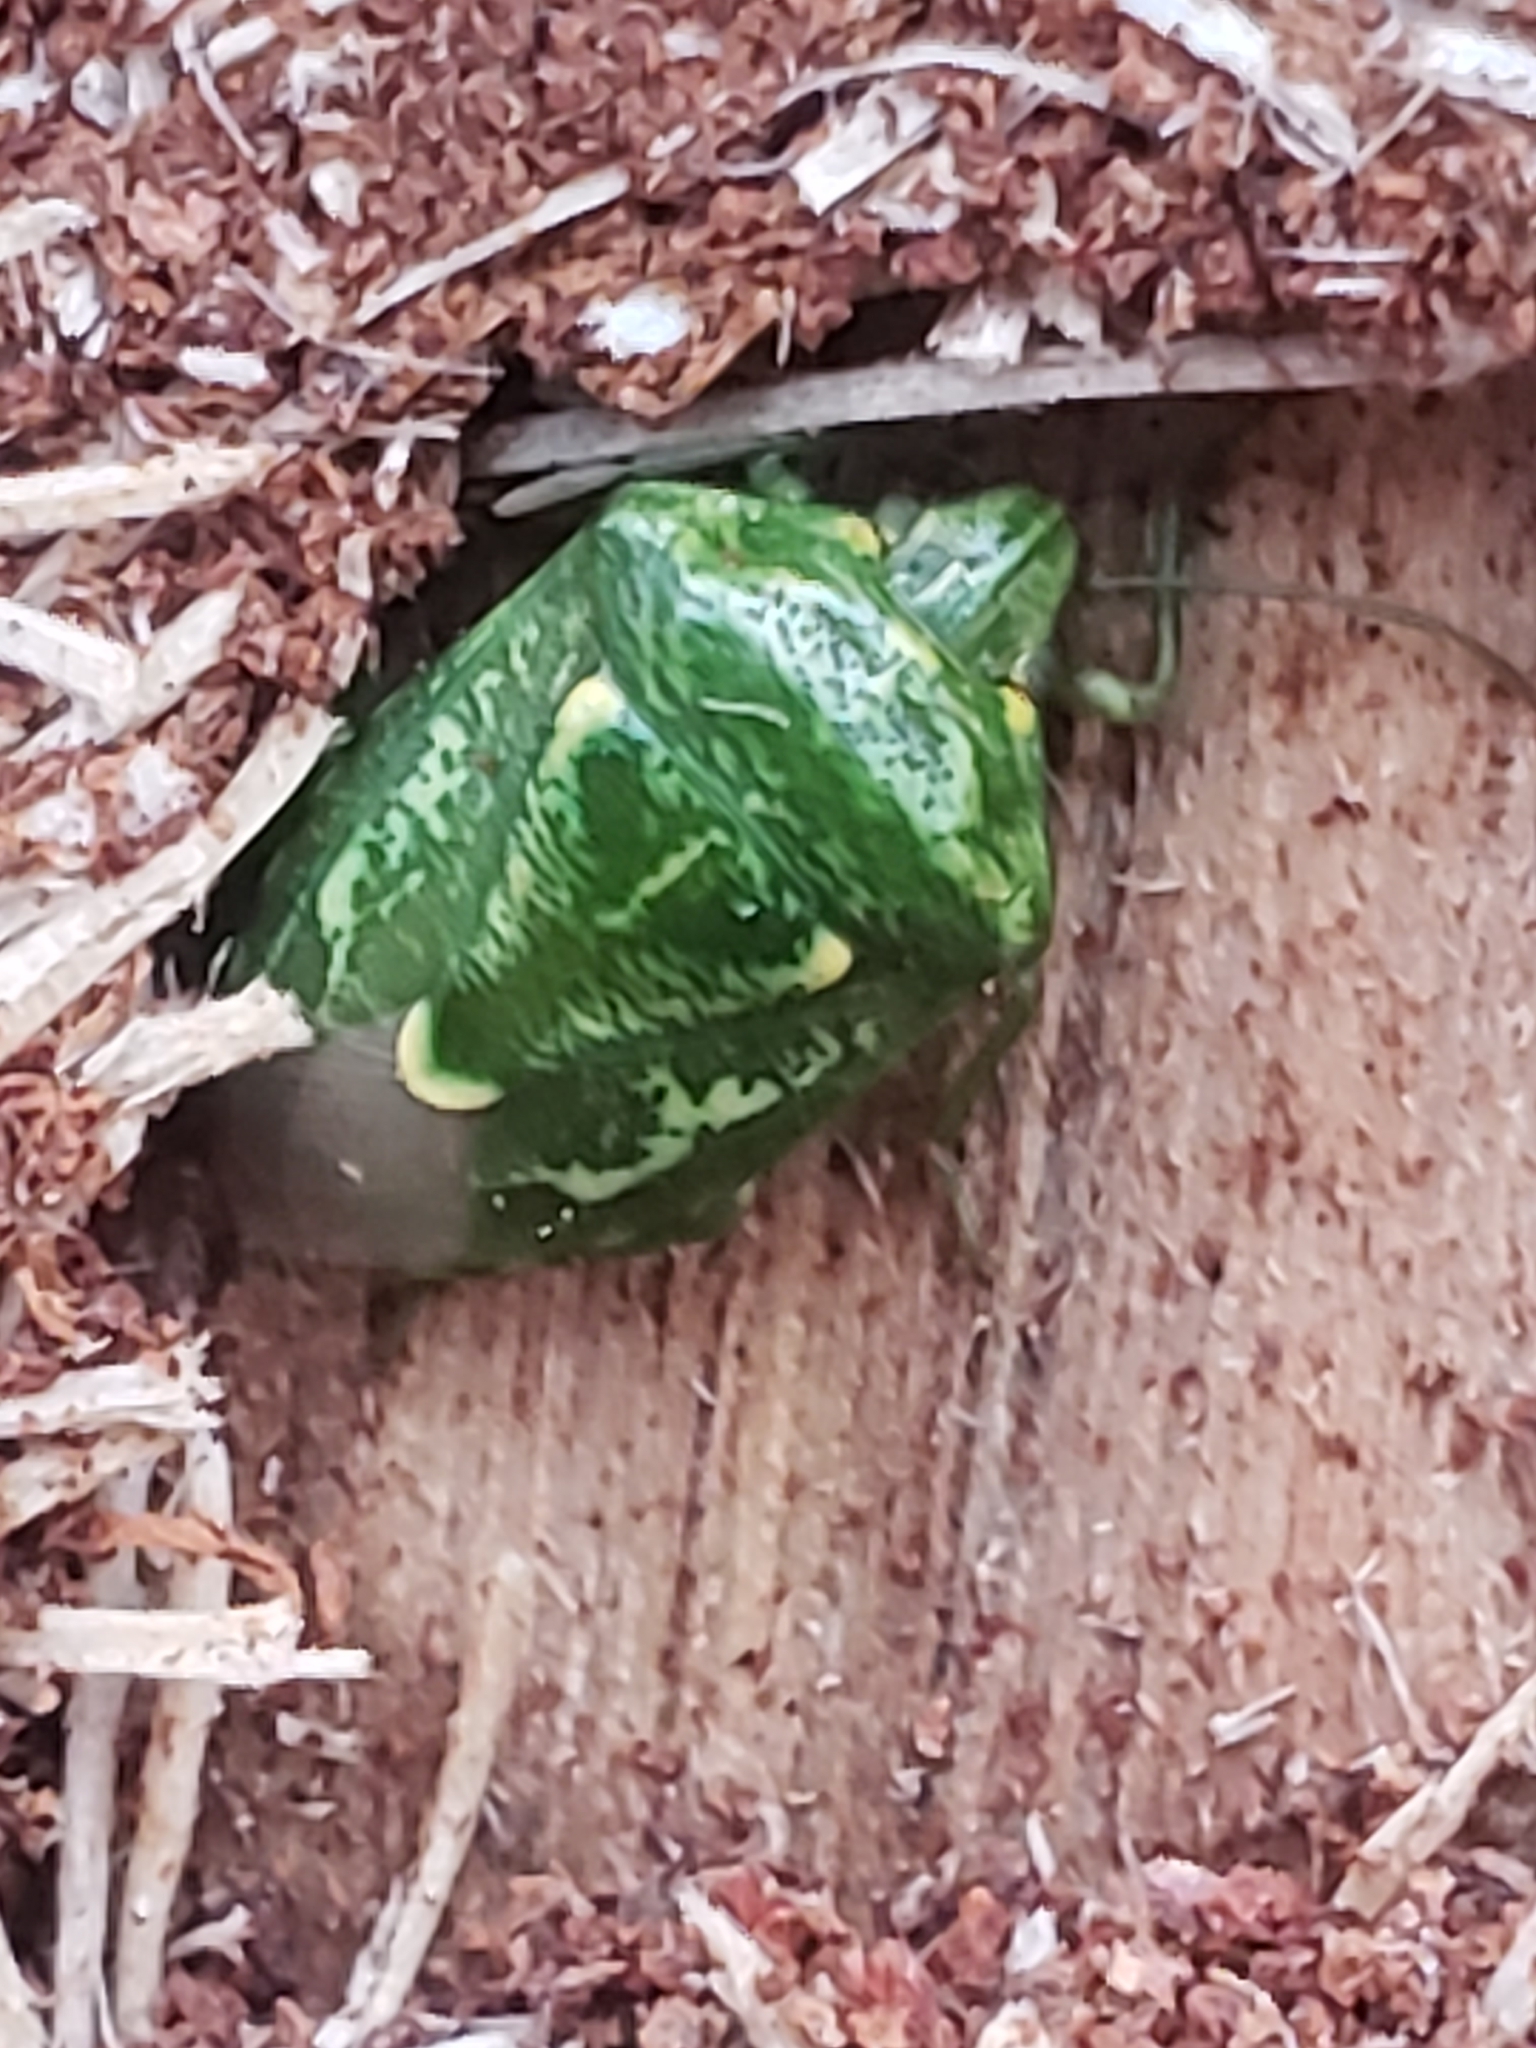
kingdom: Animalia
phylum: Arthropoda
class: Insecta
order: Hemiptera
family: Pentatomidae
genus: Banasa
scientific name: Banasa euchlora
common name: Cedar berry bug
